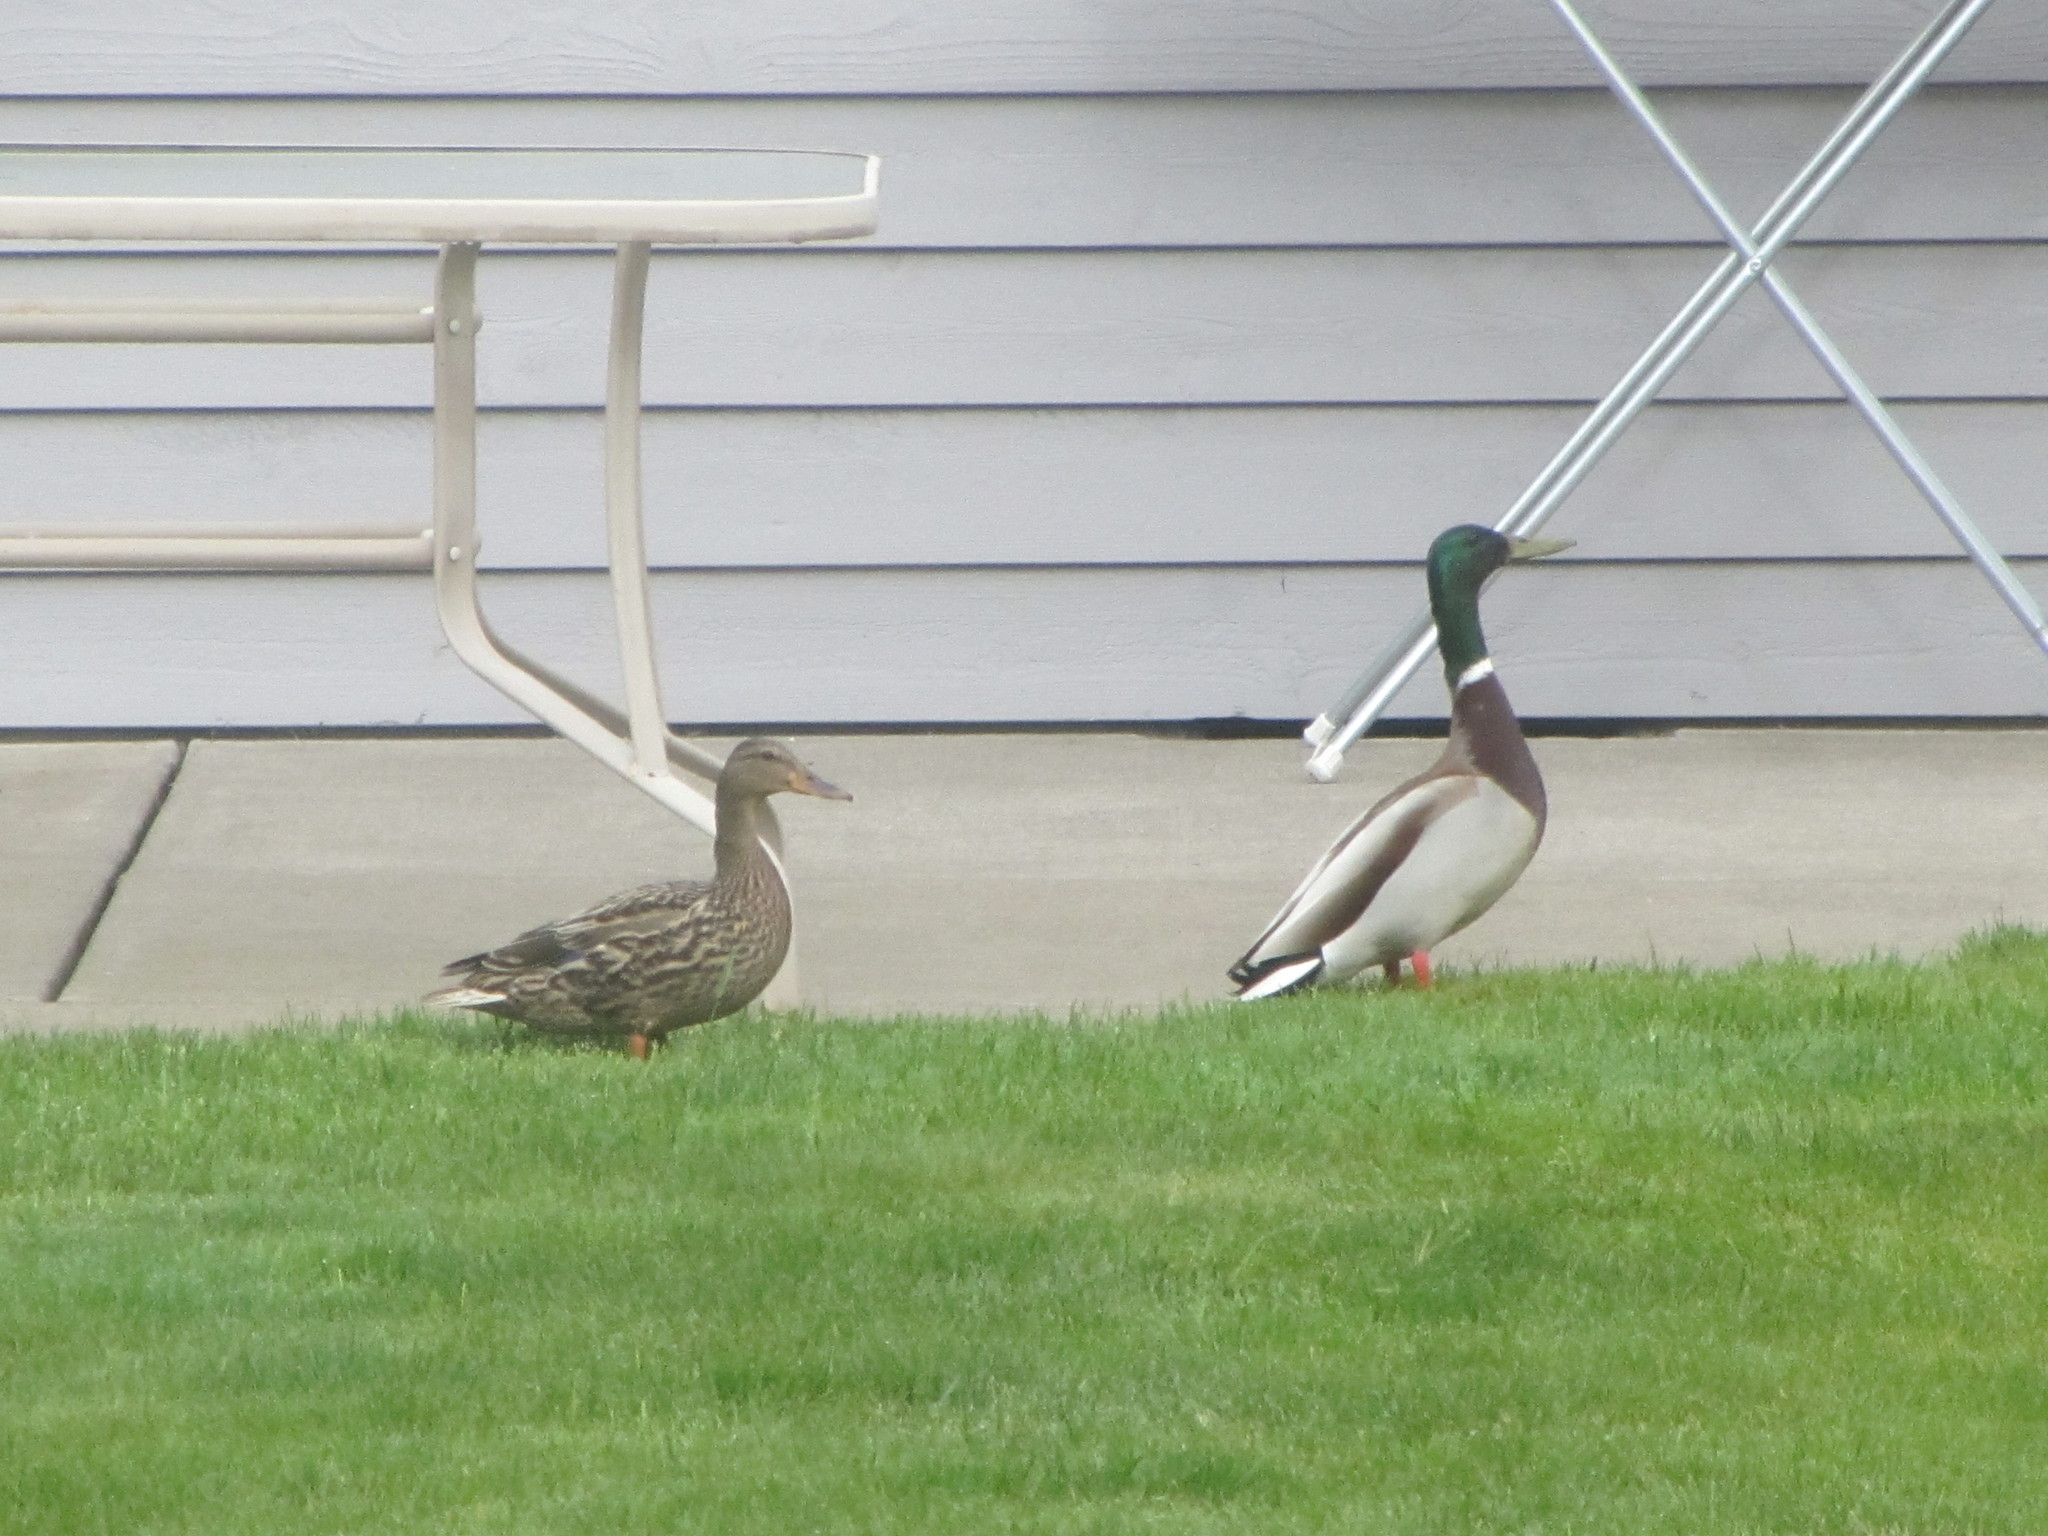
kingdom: Animalia
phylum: Chordata
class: Aves
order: Anseriformes
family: Anatidae
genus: Anas
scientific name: Anas platyrhynchos
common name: Mallard
